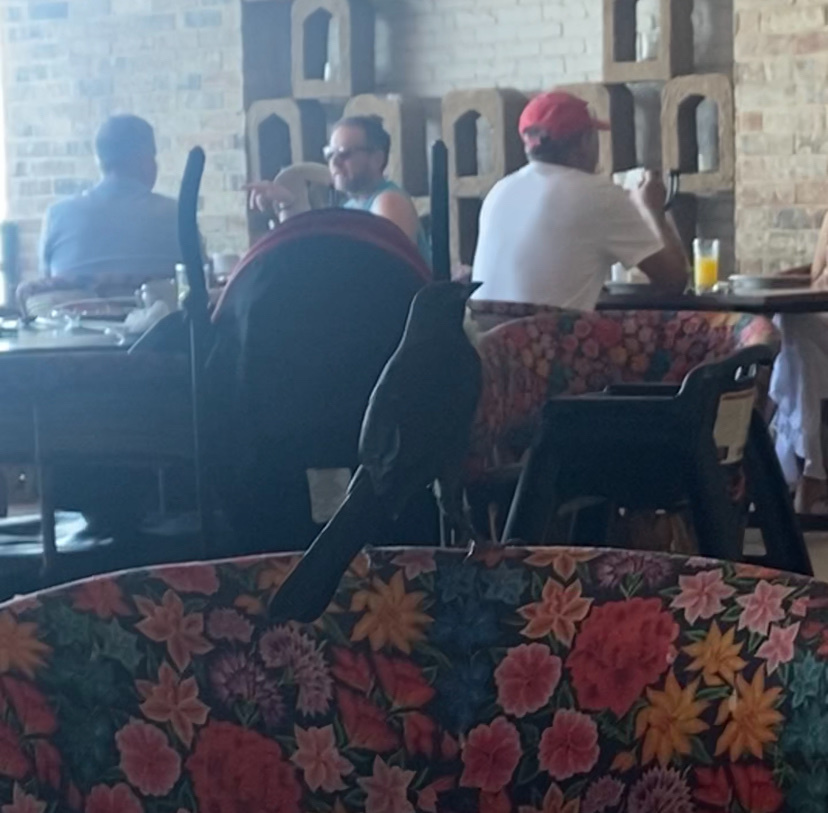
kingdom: Animalia
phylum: Chordata
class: Aves
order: Passeriformes
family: Icteridae
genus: Quiscalus
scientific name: Quiscalus mexicanus
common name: Great-tailed grackle
